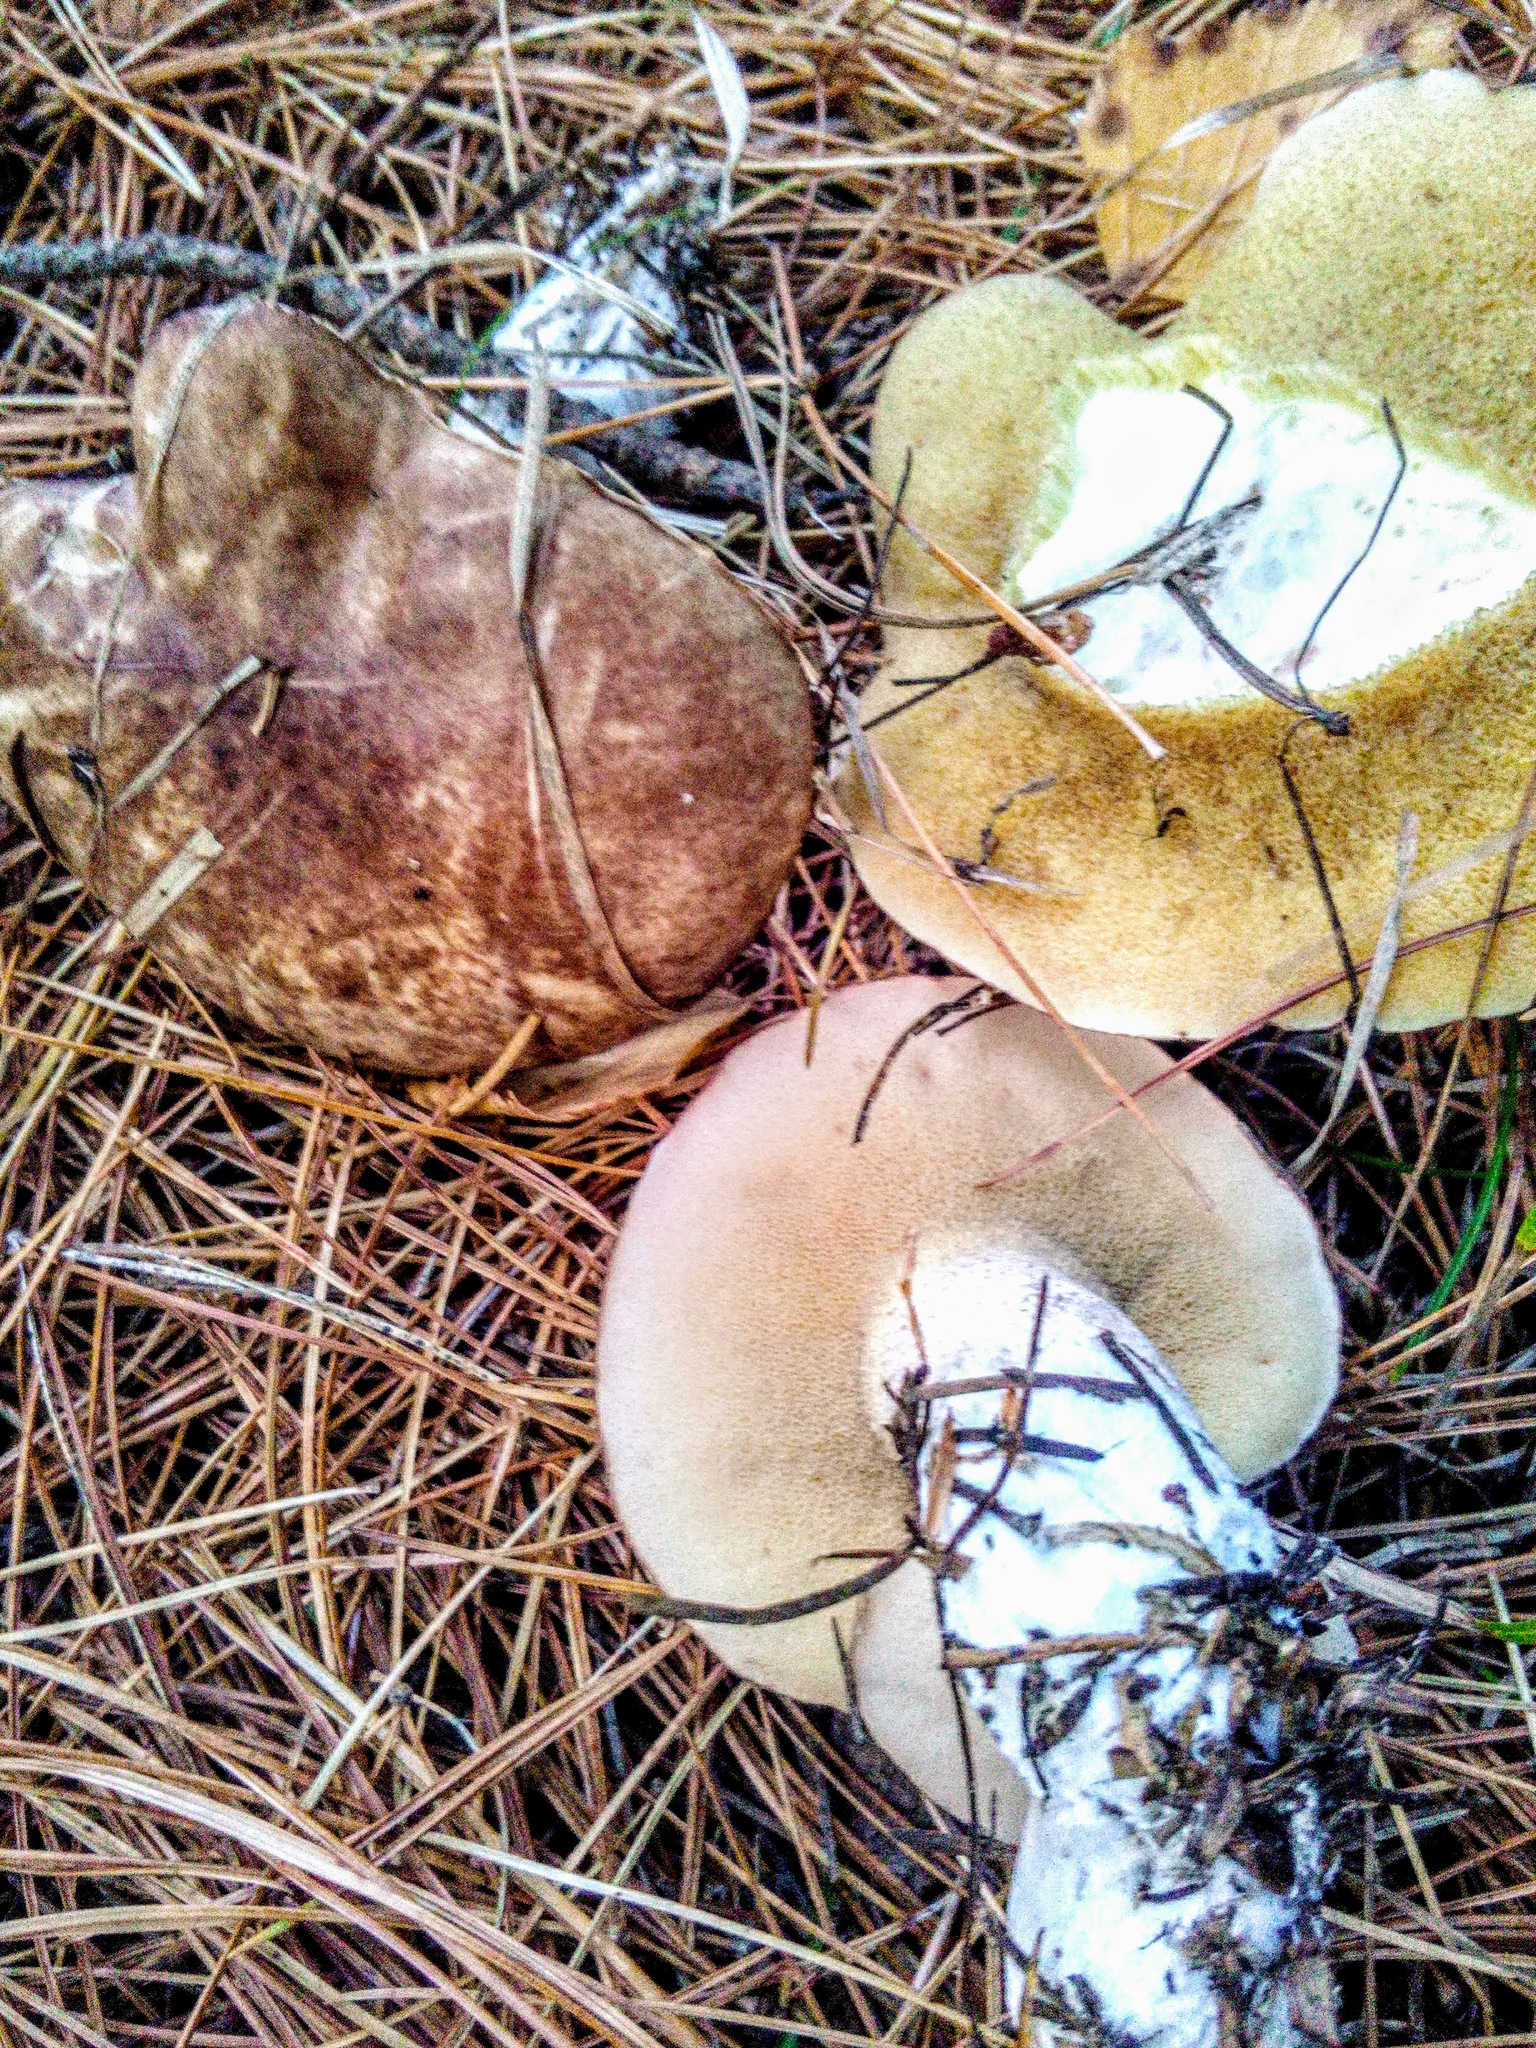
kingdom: Fungi
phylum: Basidiomycota
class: Agaricomycetes
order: Boletales
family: Suillaceae
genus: Suillus
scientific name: Suillus placidus
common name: Slippery white bolete
